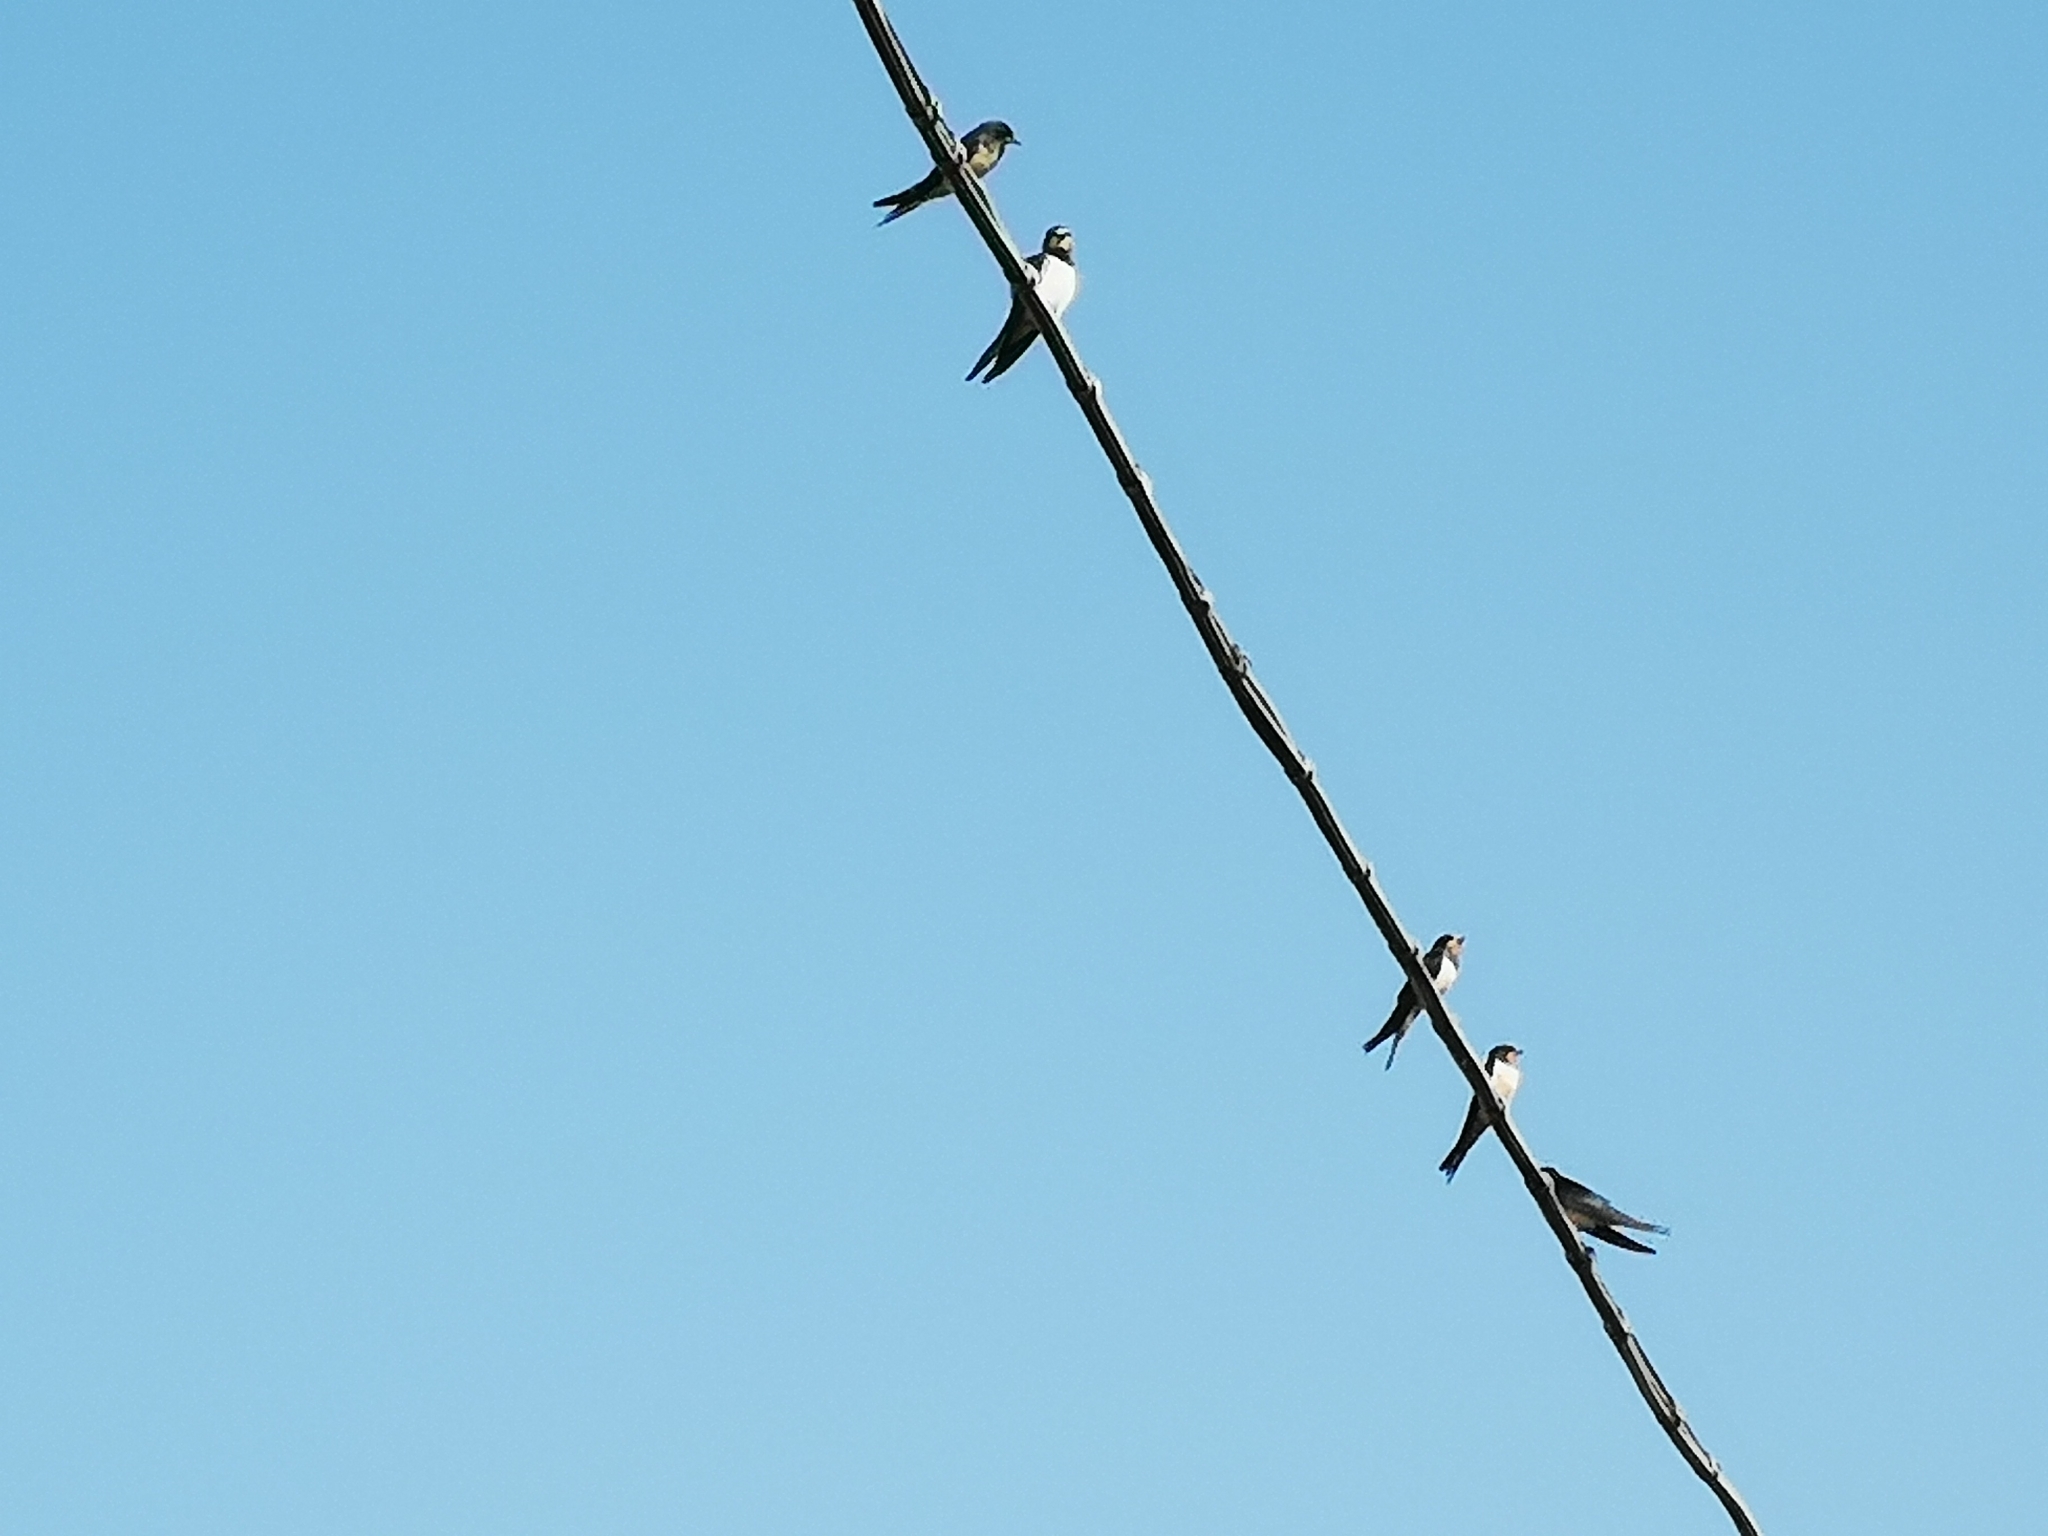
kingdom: Animalia
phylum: Chordata
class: Aves
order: Passeriformes
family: Hirundinidae
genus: Hirundo
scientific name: Hirundo rustica
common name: Barn swallow
